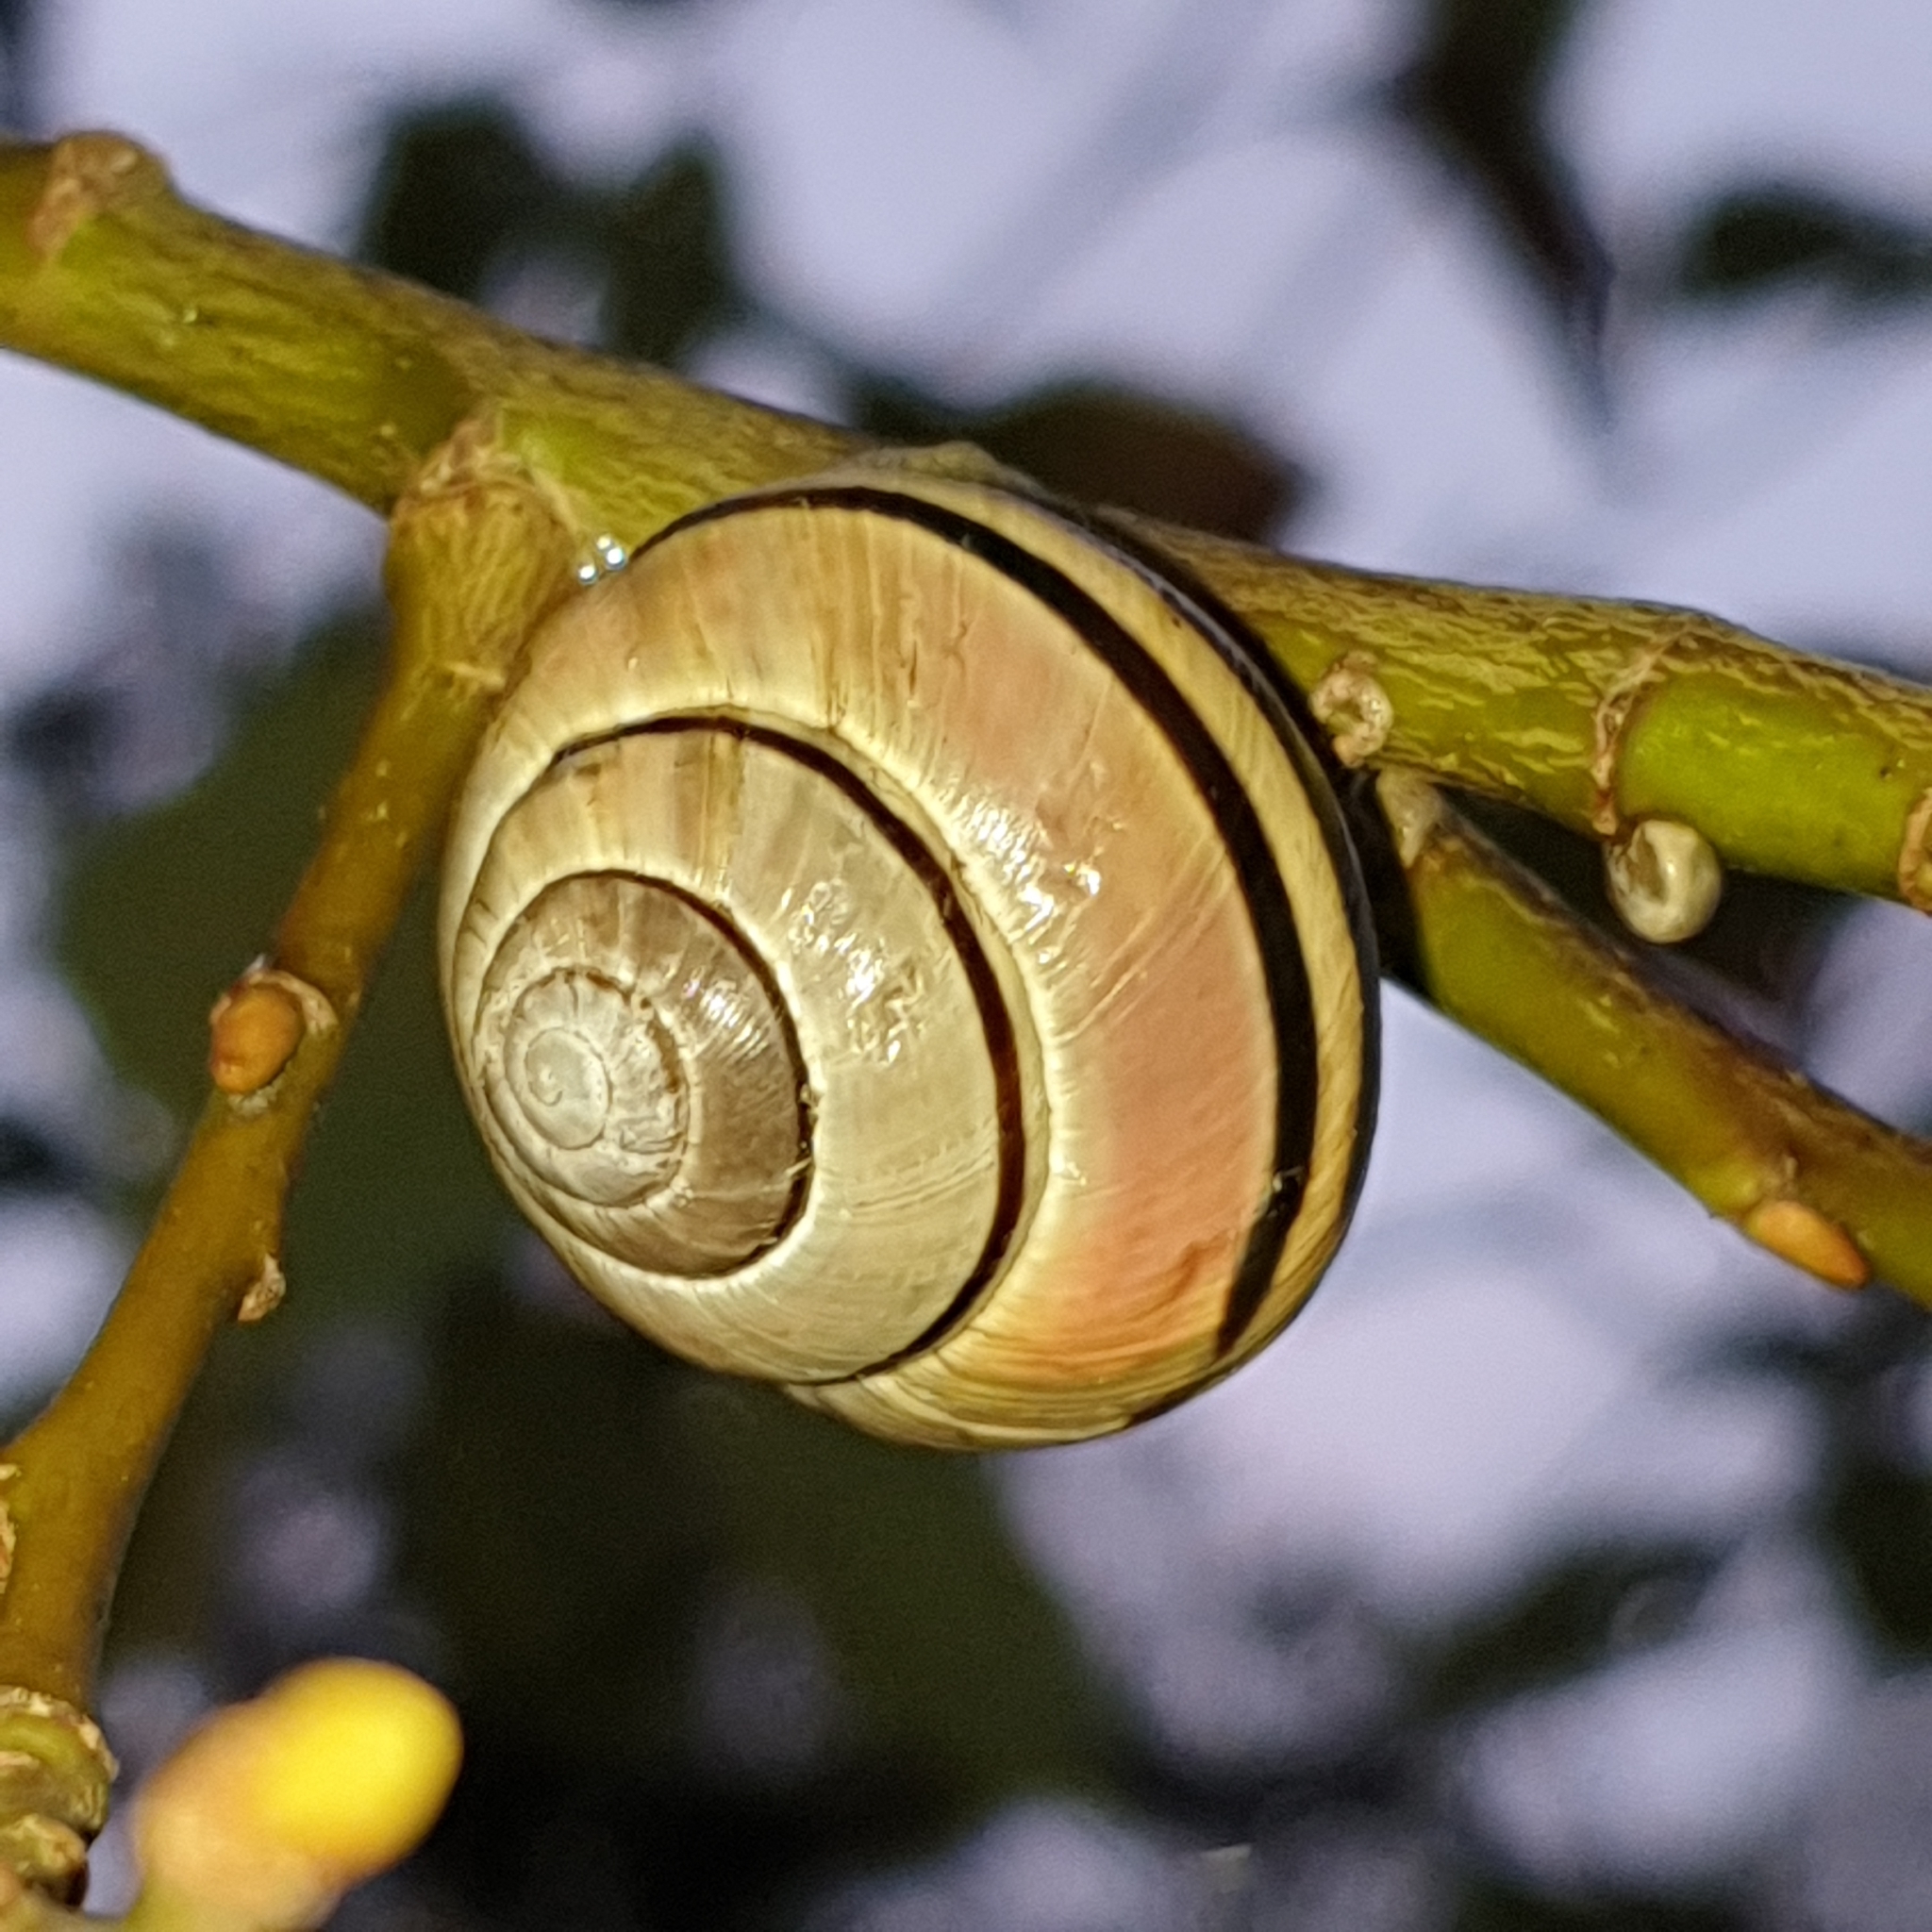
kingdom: Animalia
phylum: Mollusca
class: Gastropoda
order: Stylommatophora
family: Helicidae
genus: Cepaea
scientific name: Cepaea nemoralis
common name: Grovesnail
